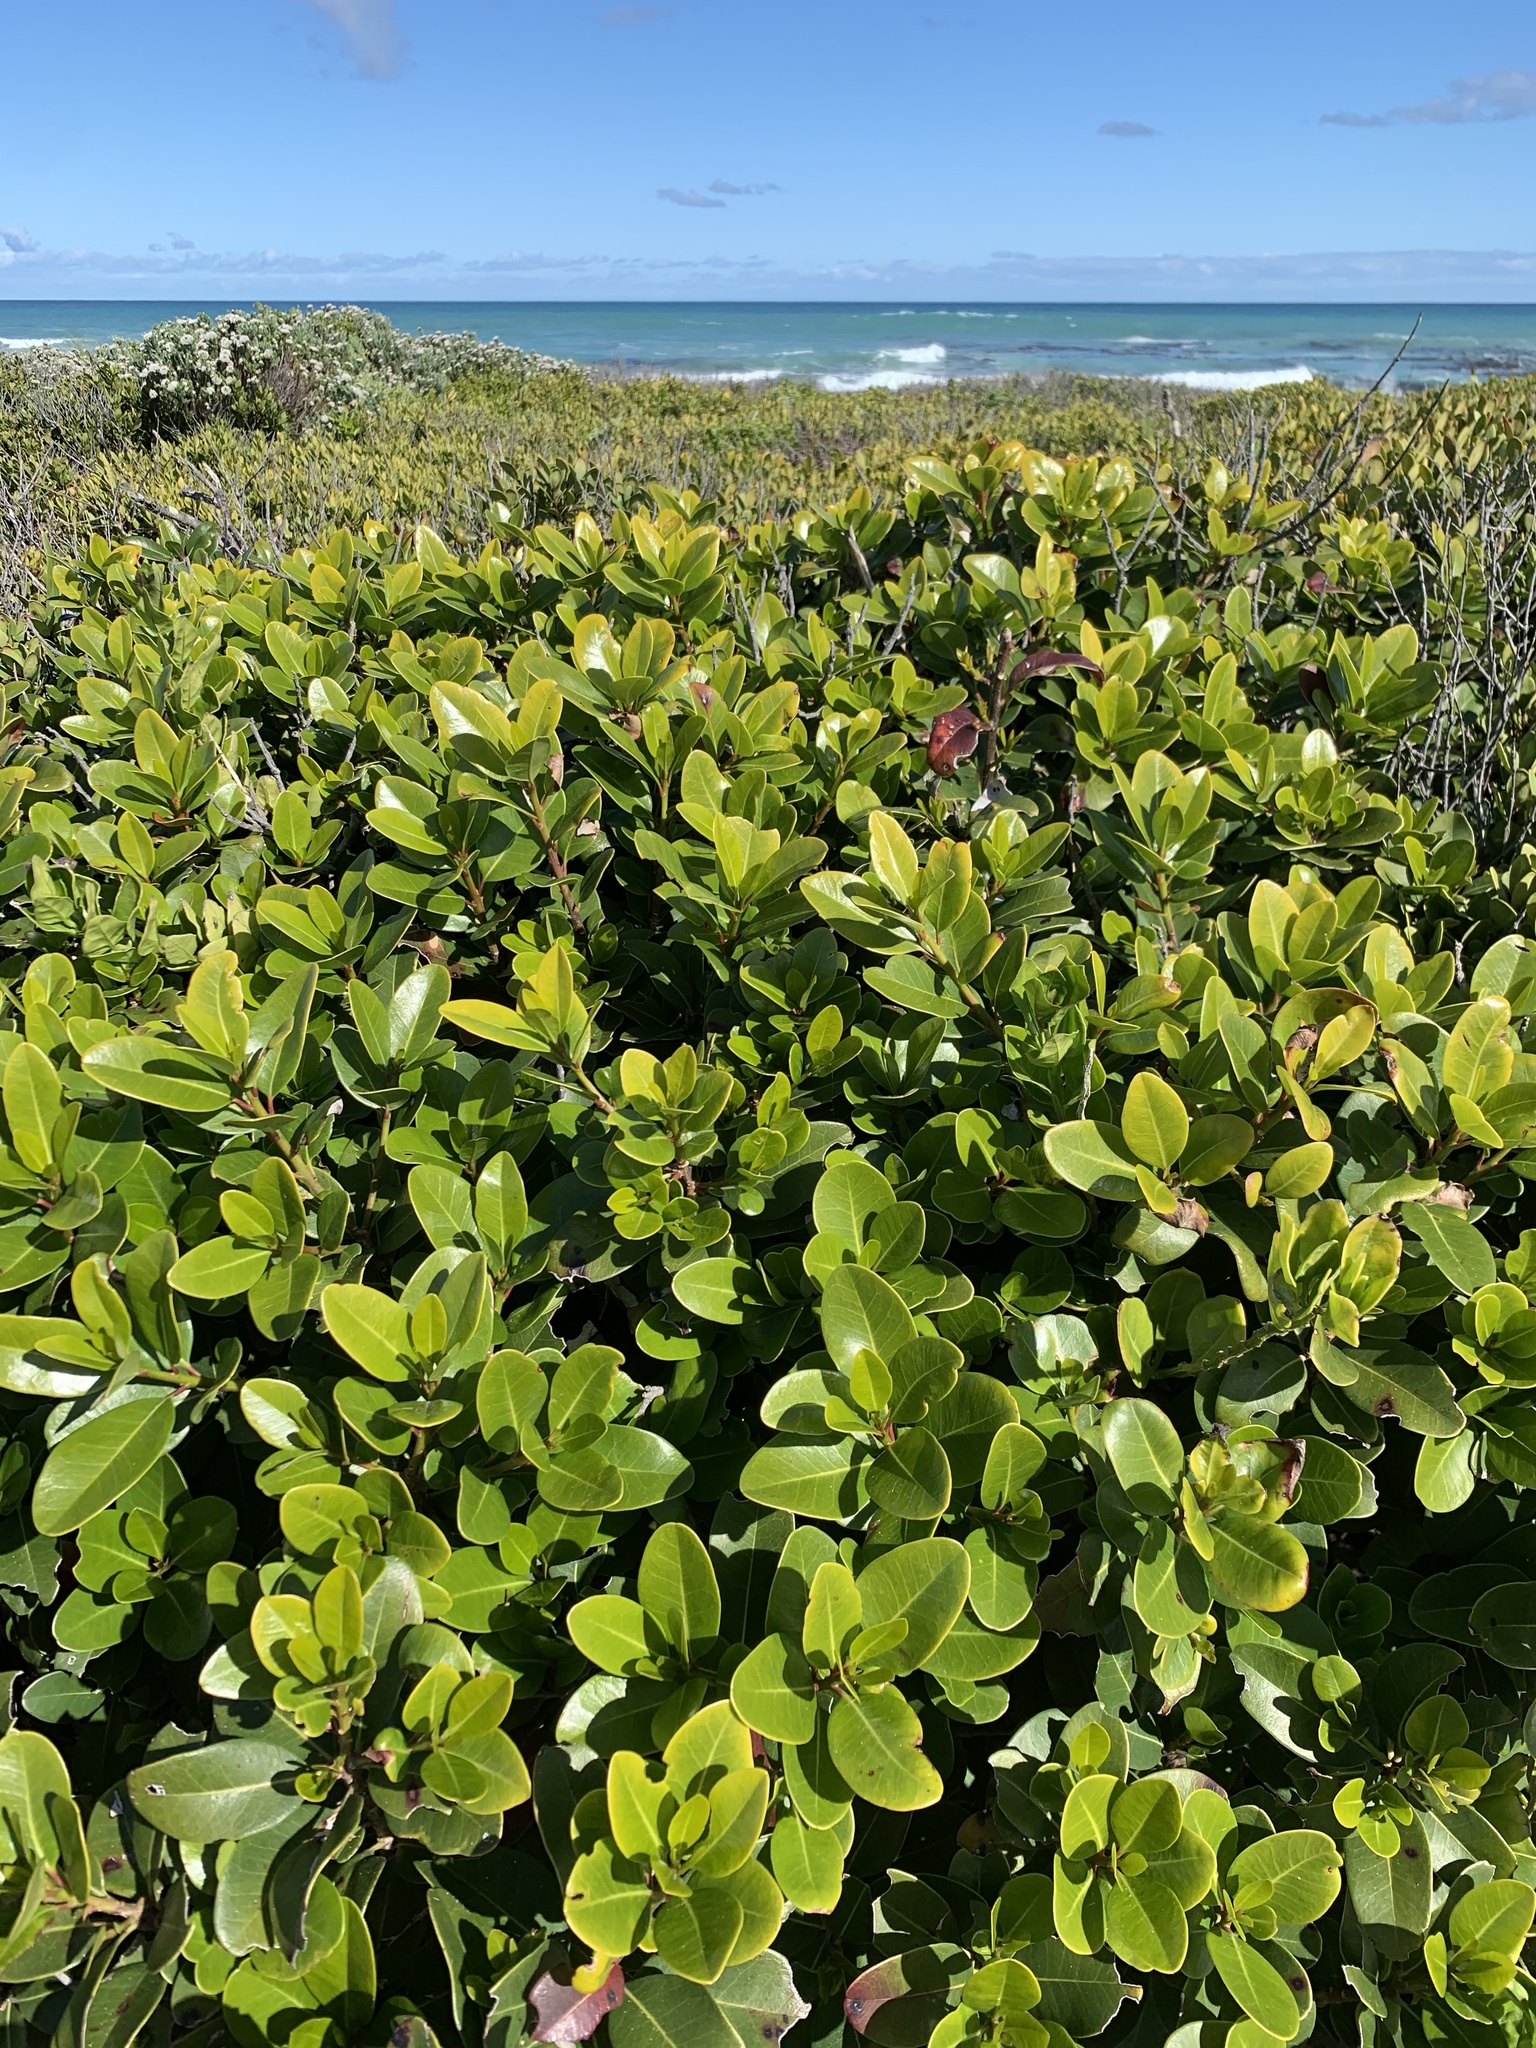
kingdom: Plantae
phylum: Tracheophyta
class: Magnoliopsida
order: Ericales
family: Sapotaceae
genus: Sideroxylon
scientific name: Sideroxylon inerme
